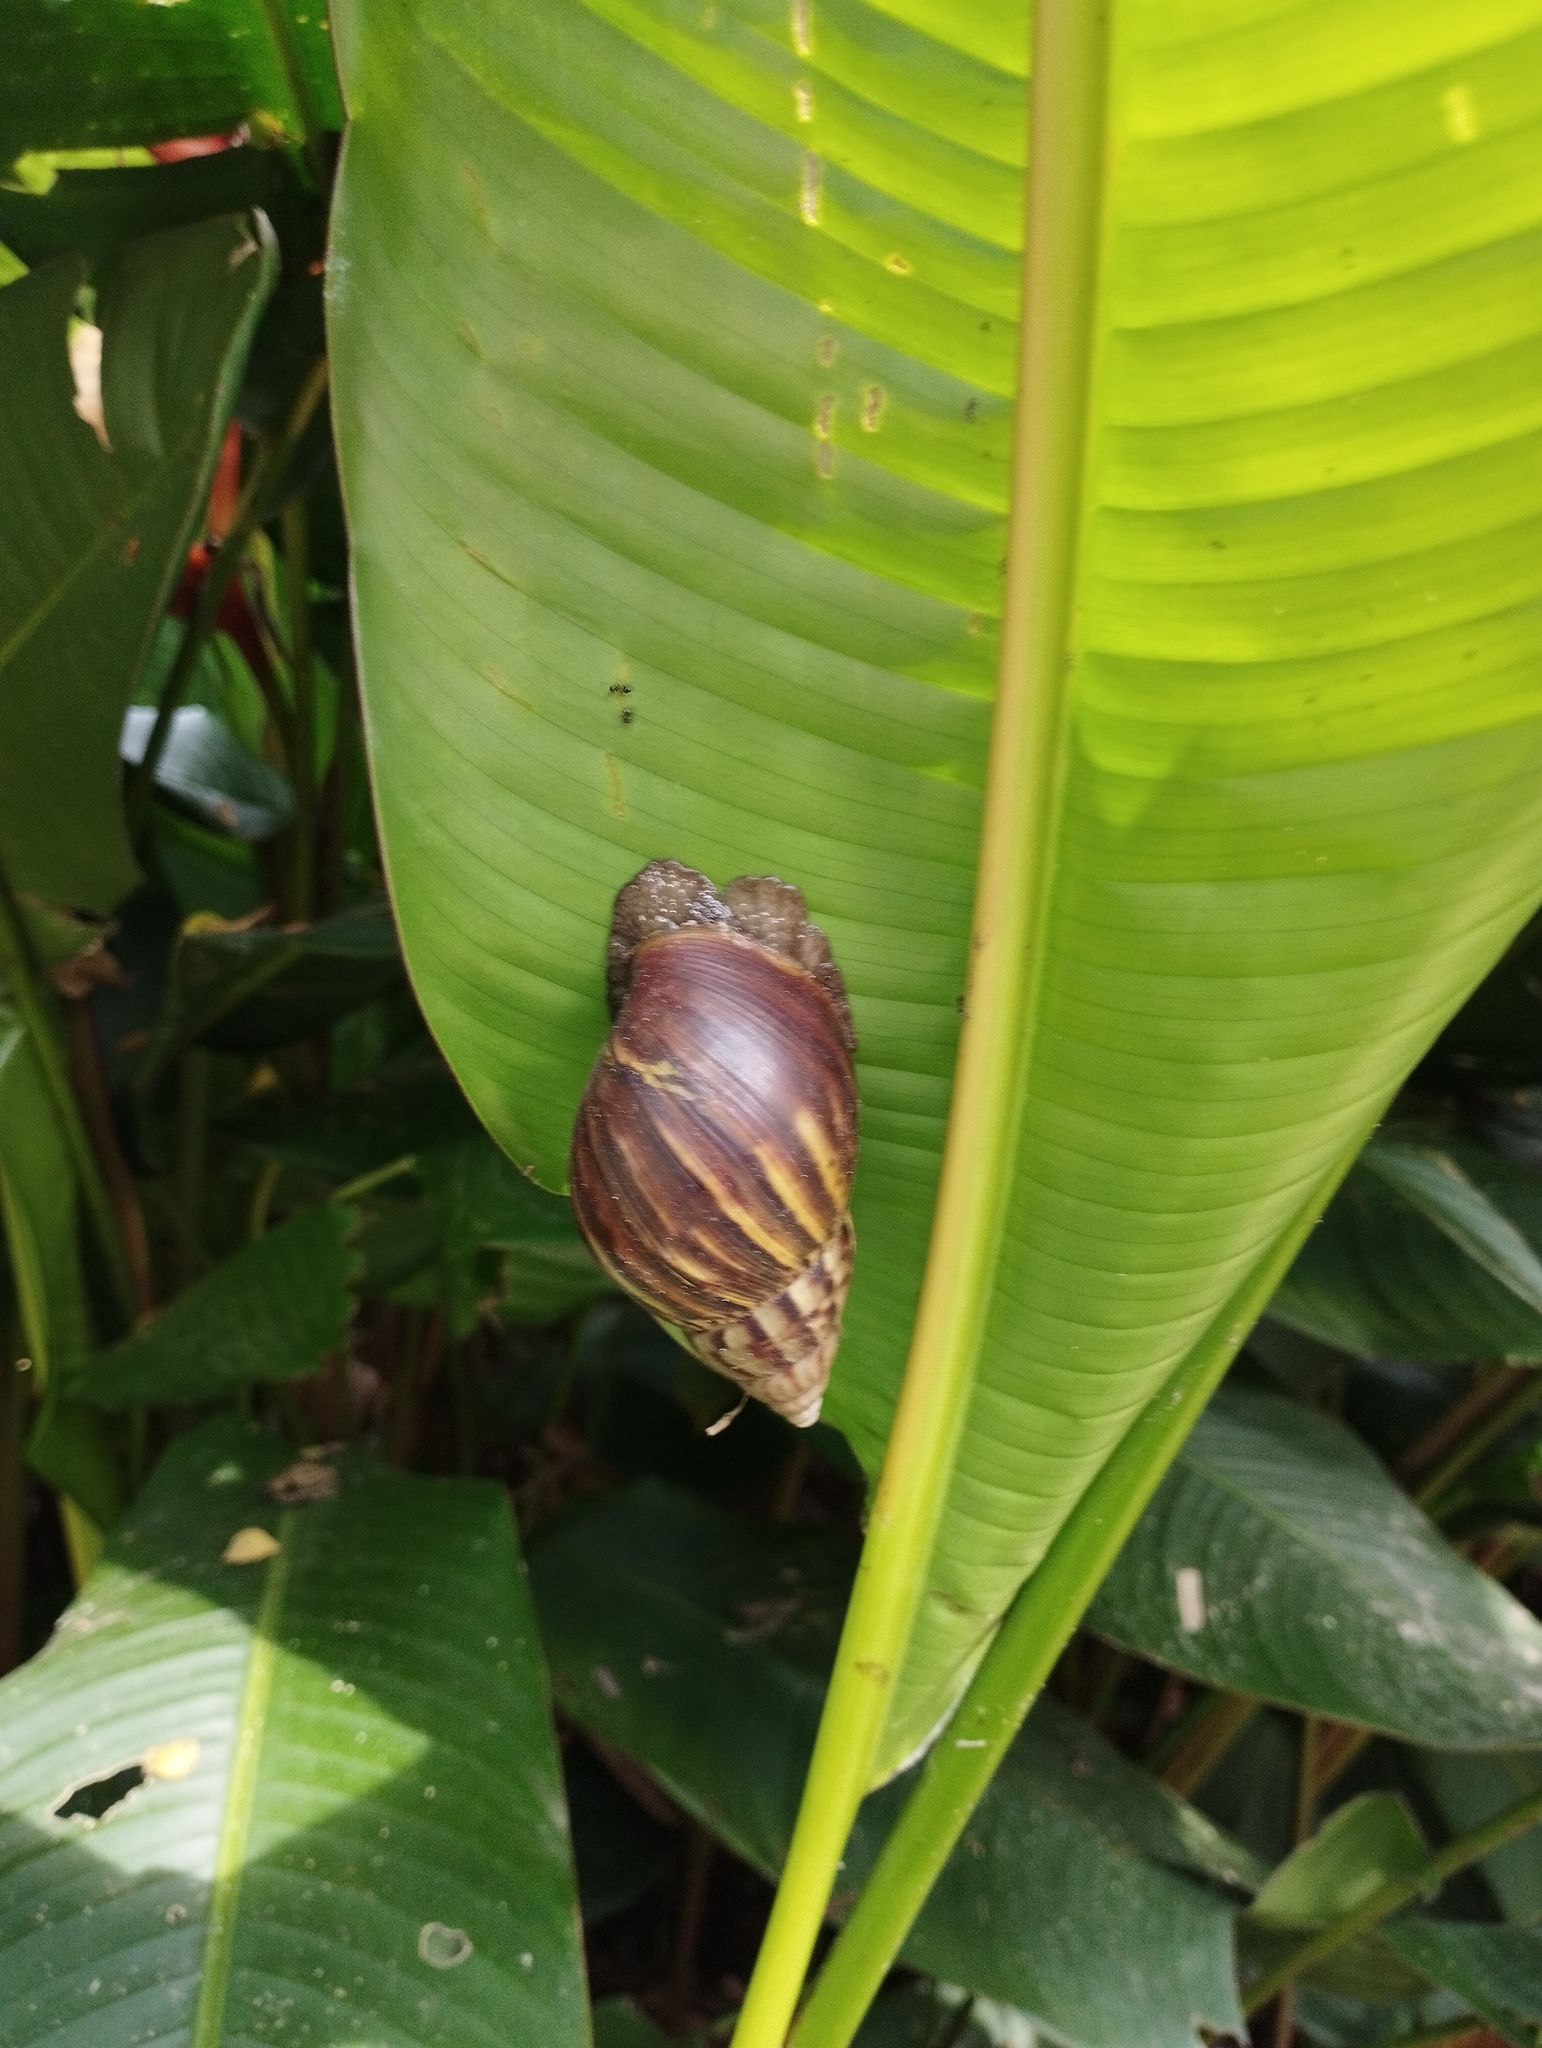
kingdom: Animalia
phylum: Mollusca
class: Gastropoda
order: Stylommatophora
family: Achatinidae
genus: Lissachatina
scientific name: Lissachatina fulica
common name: Giant african snail
